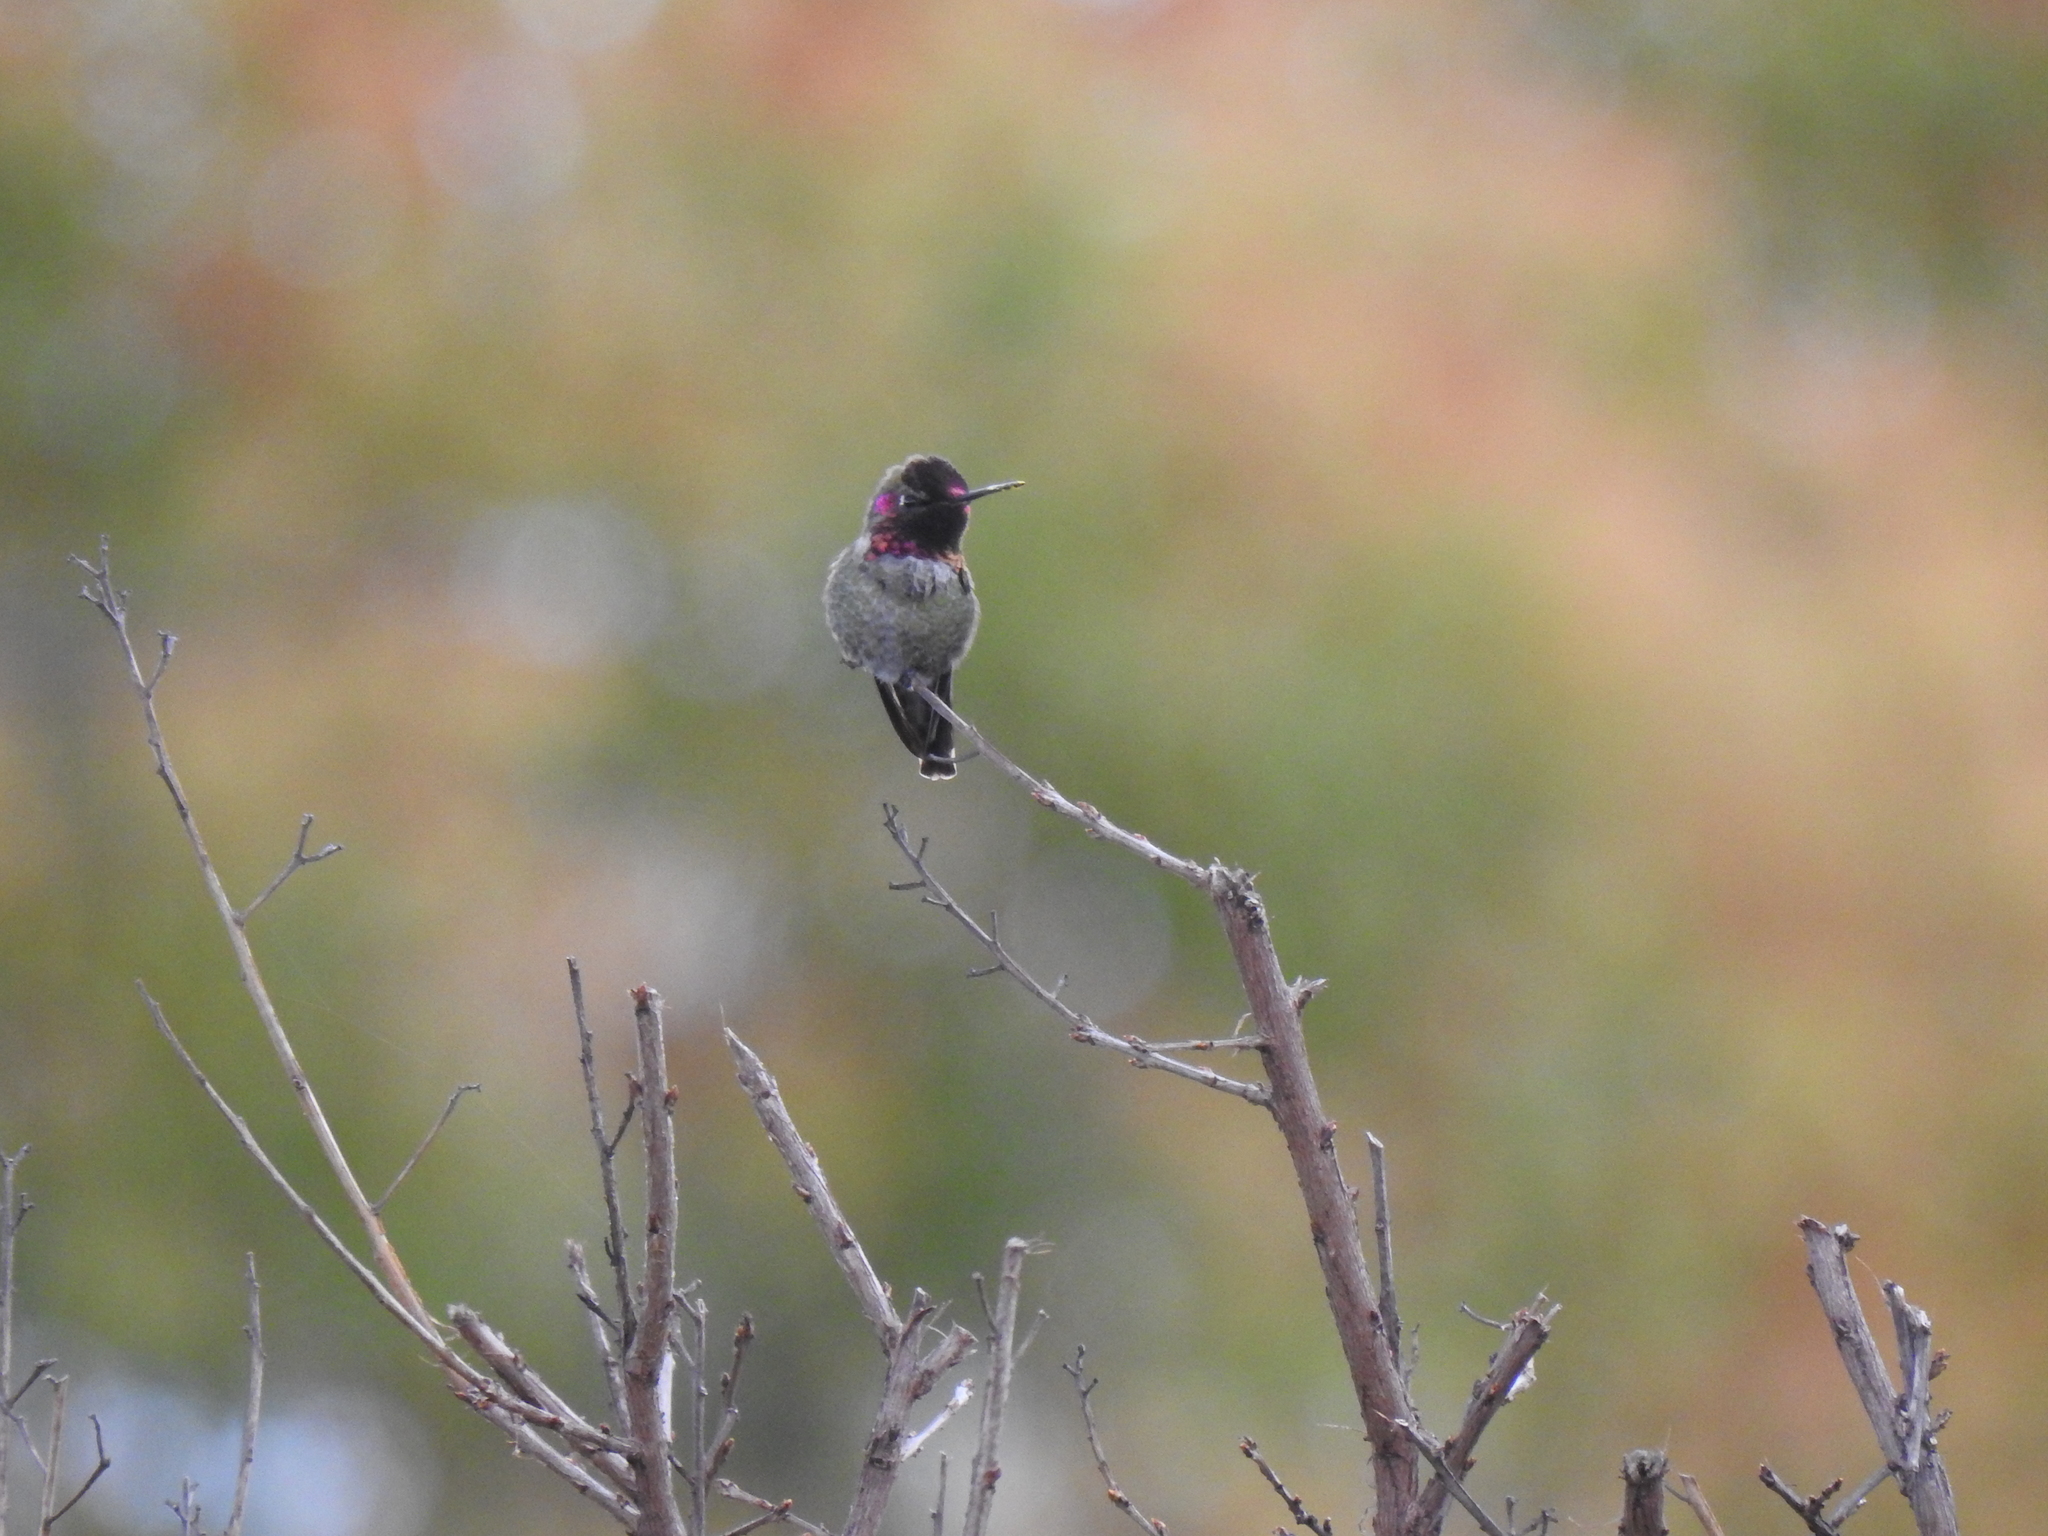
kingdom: Animalia
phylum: Chordata
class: Aves
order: Apodiformes
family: Trochilidae
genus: Calypte
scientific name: Calypte anna
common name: Anna's hummingbird
